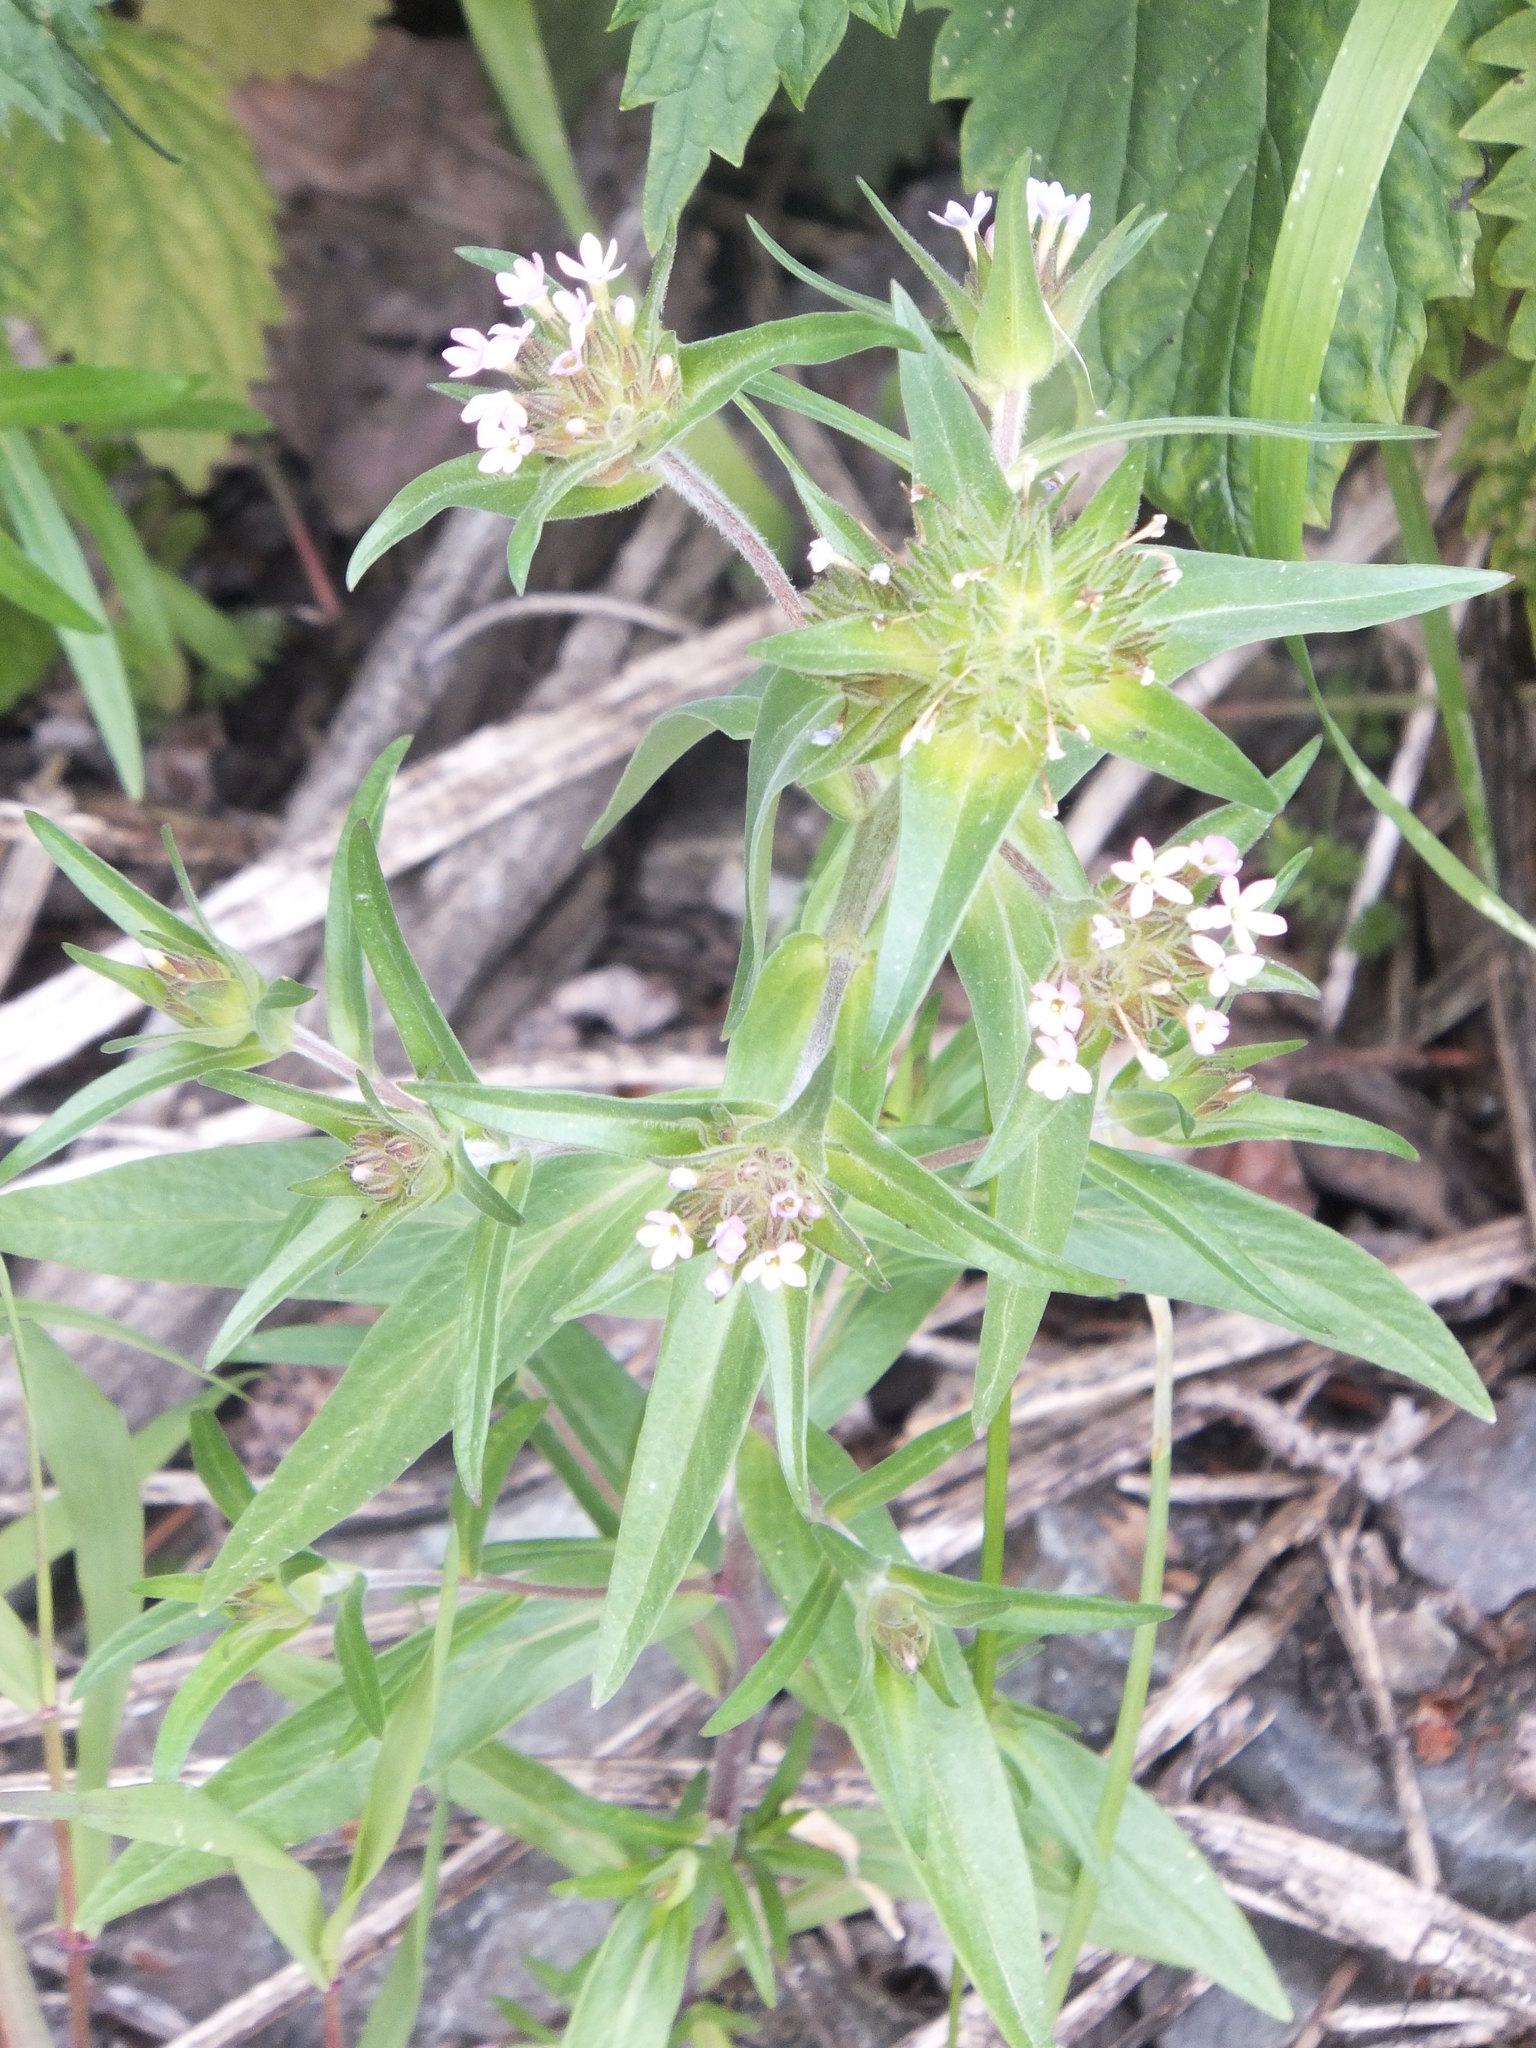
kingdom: Plantae
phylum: Tracheophyta
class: Magnoliopsida
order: Ericales
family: Polemoniaceae
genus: Collomia
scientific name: Collomia linearis
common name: Tiny trumpet
